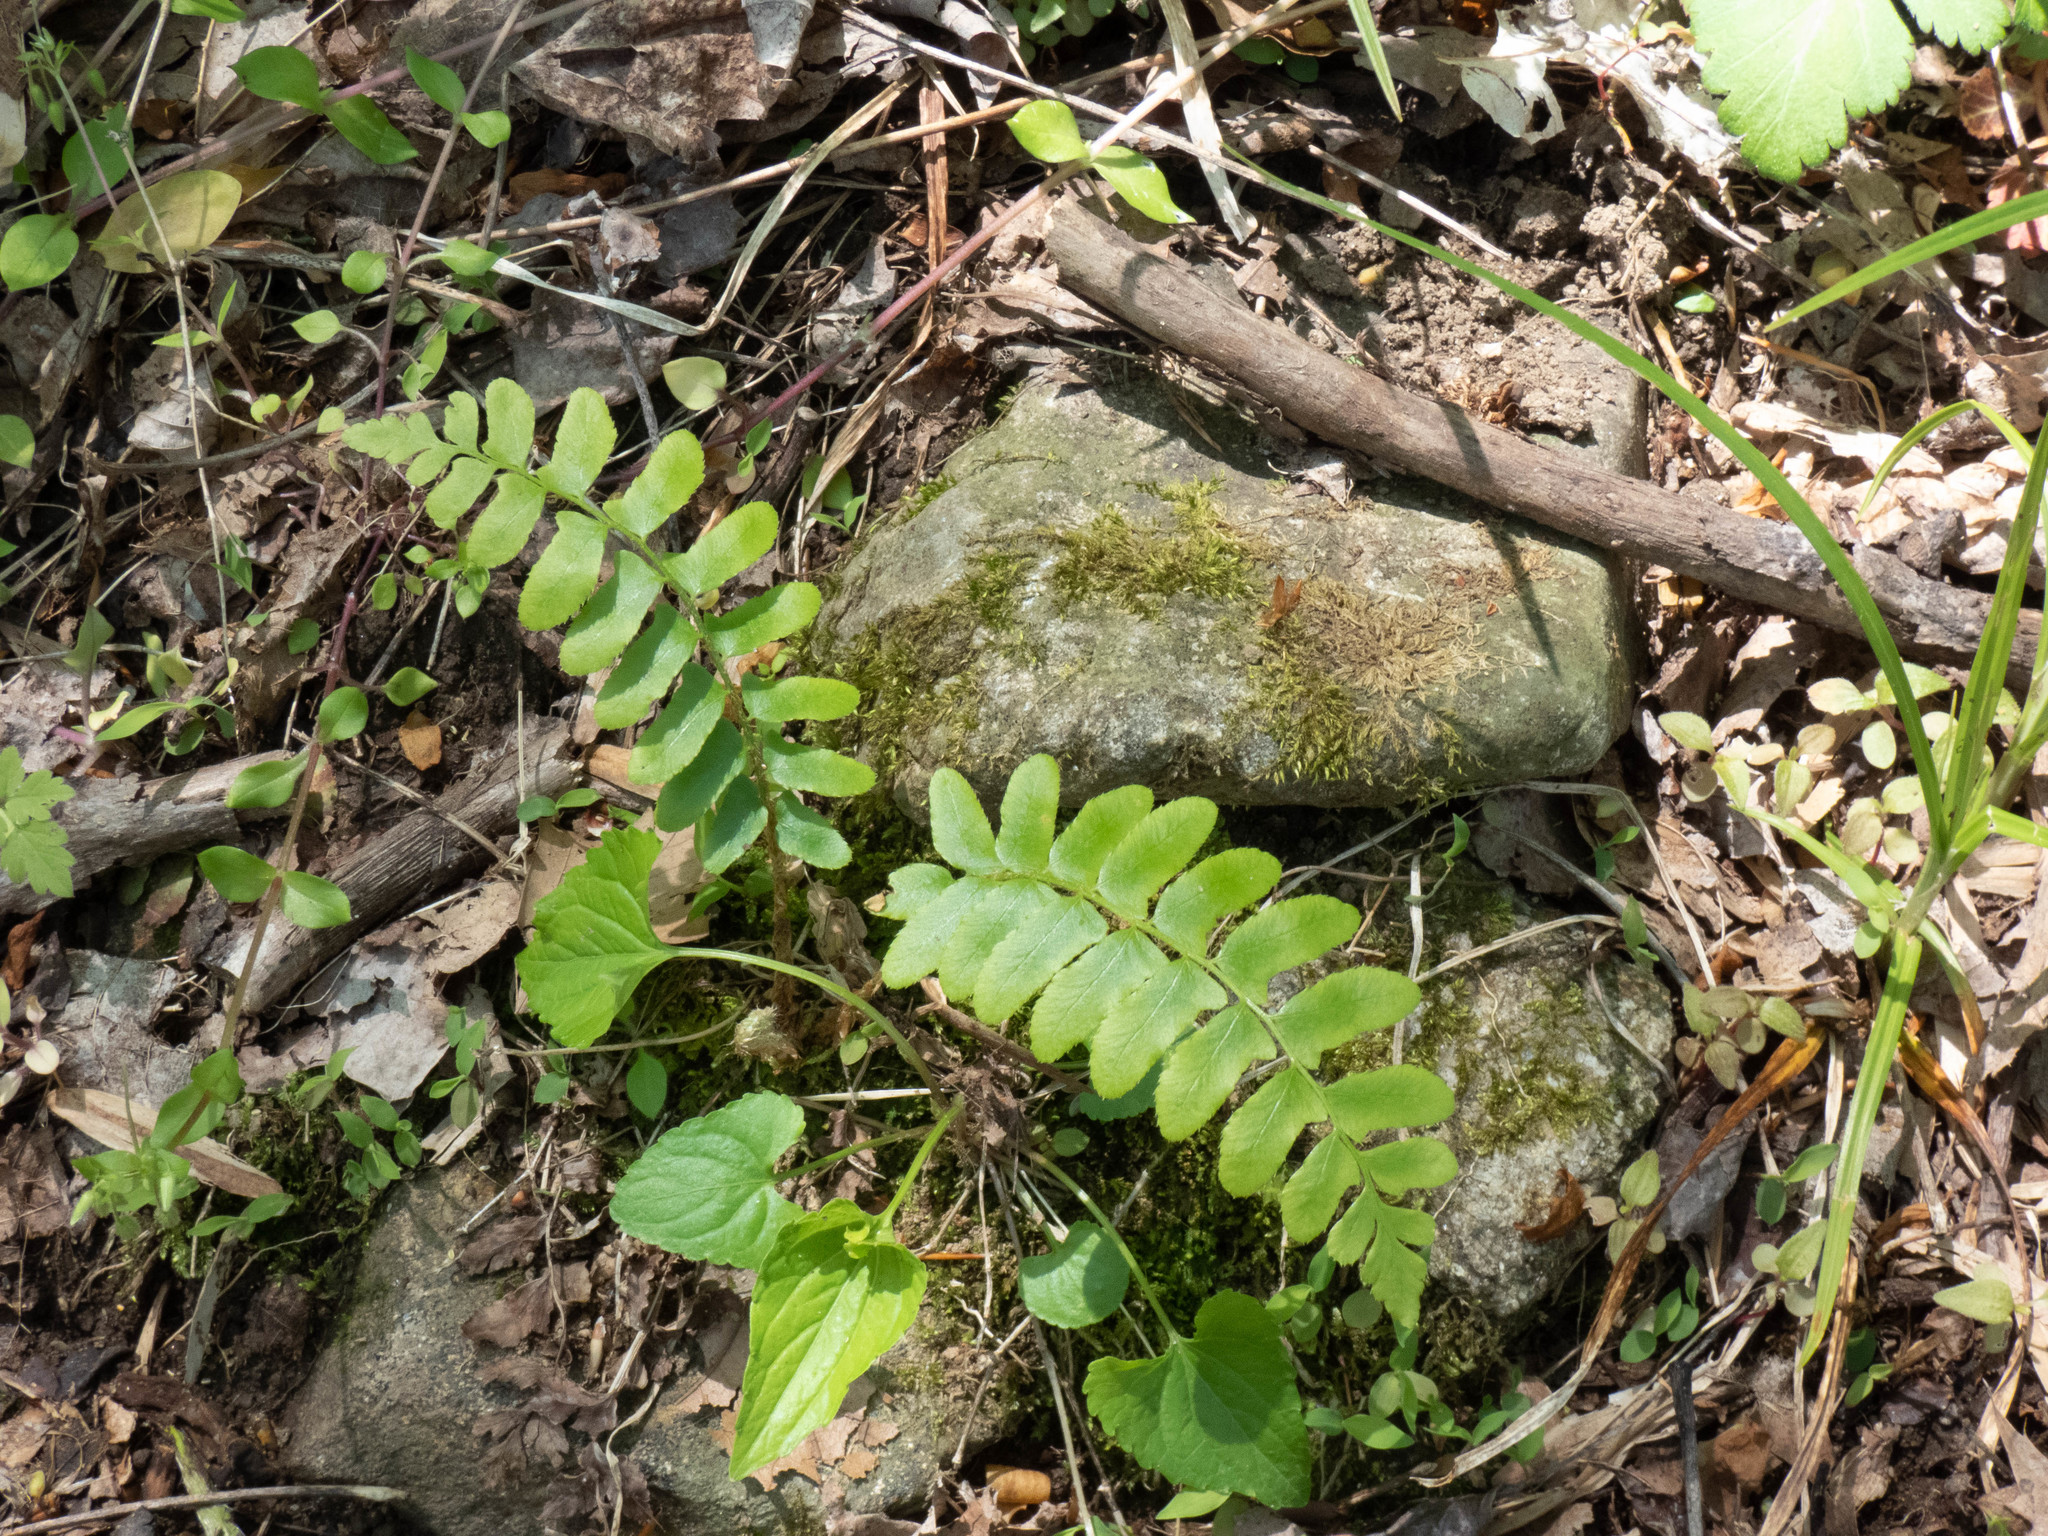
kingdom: Plantae
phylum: Tracheophyta
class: Polypodiopsida
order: Polypodiales
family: Dryopteridaceae
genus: Polystichum
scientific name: Polystichum acrostichoides
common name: Christmas fern
